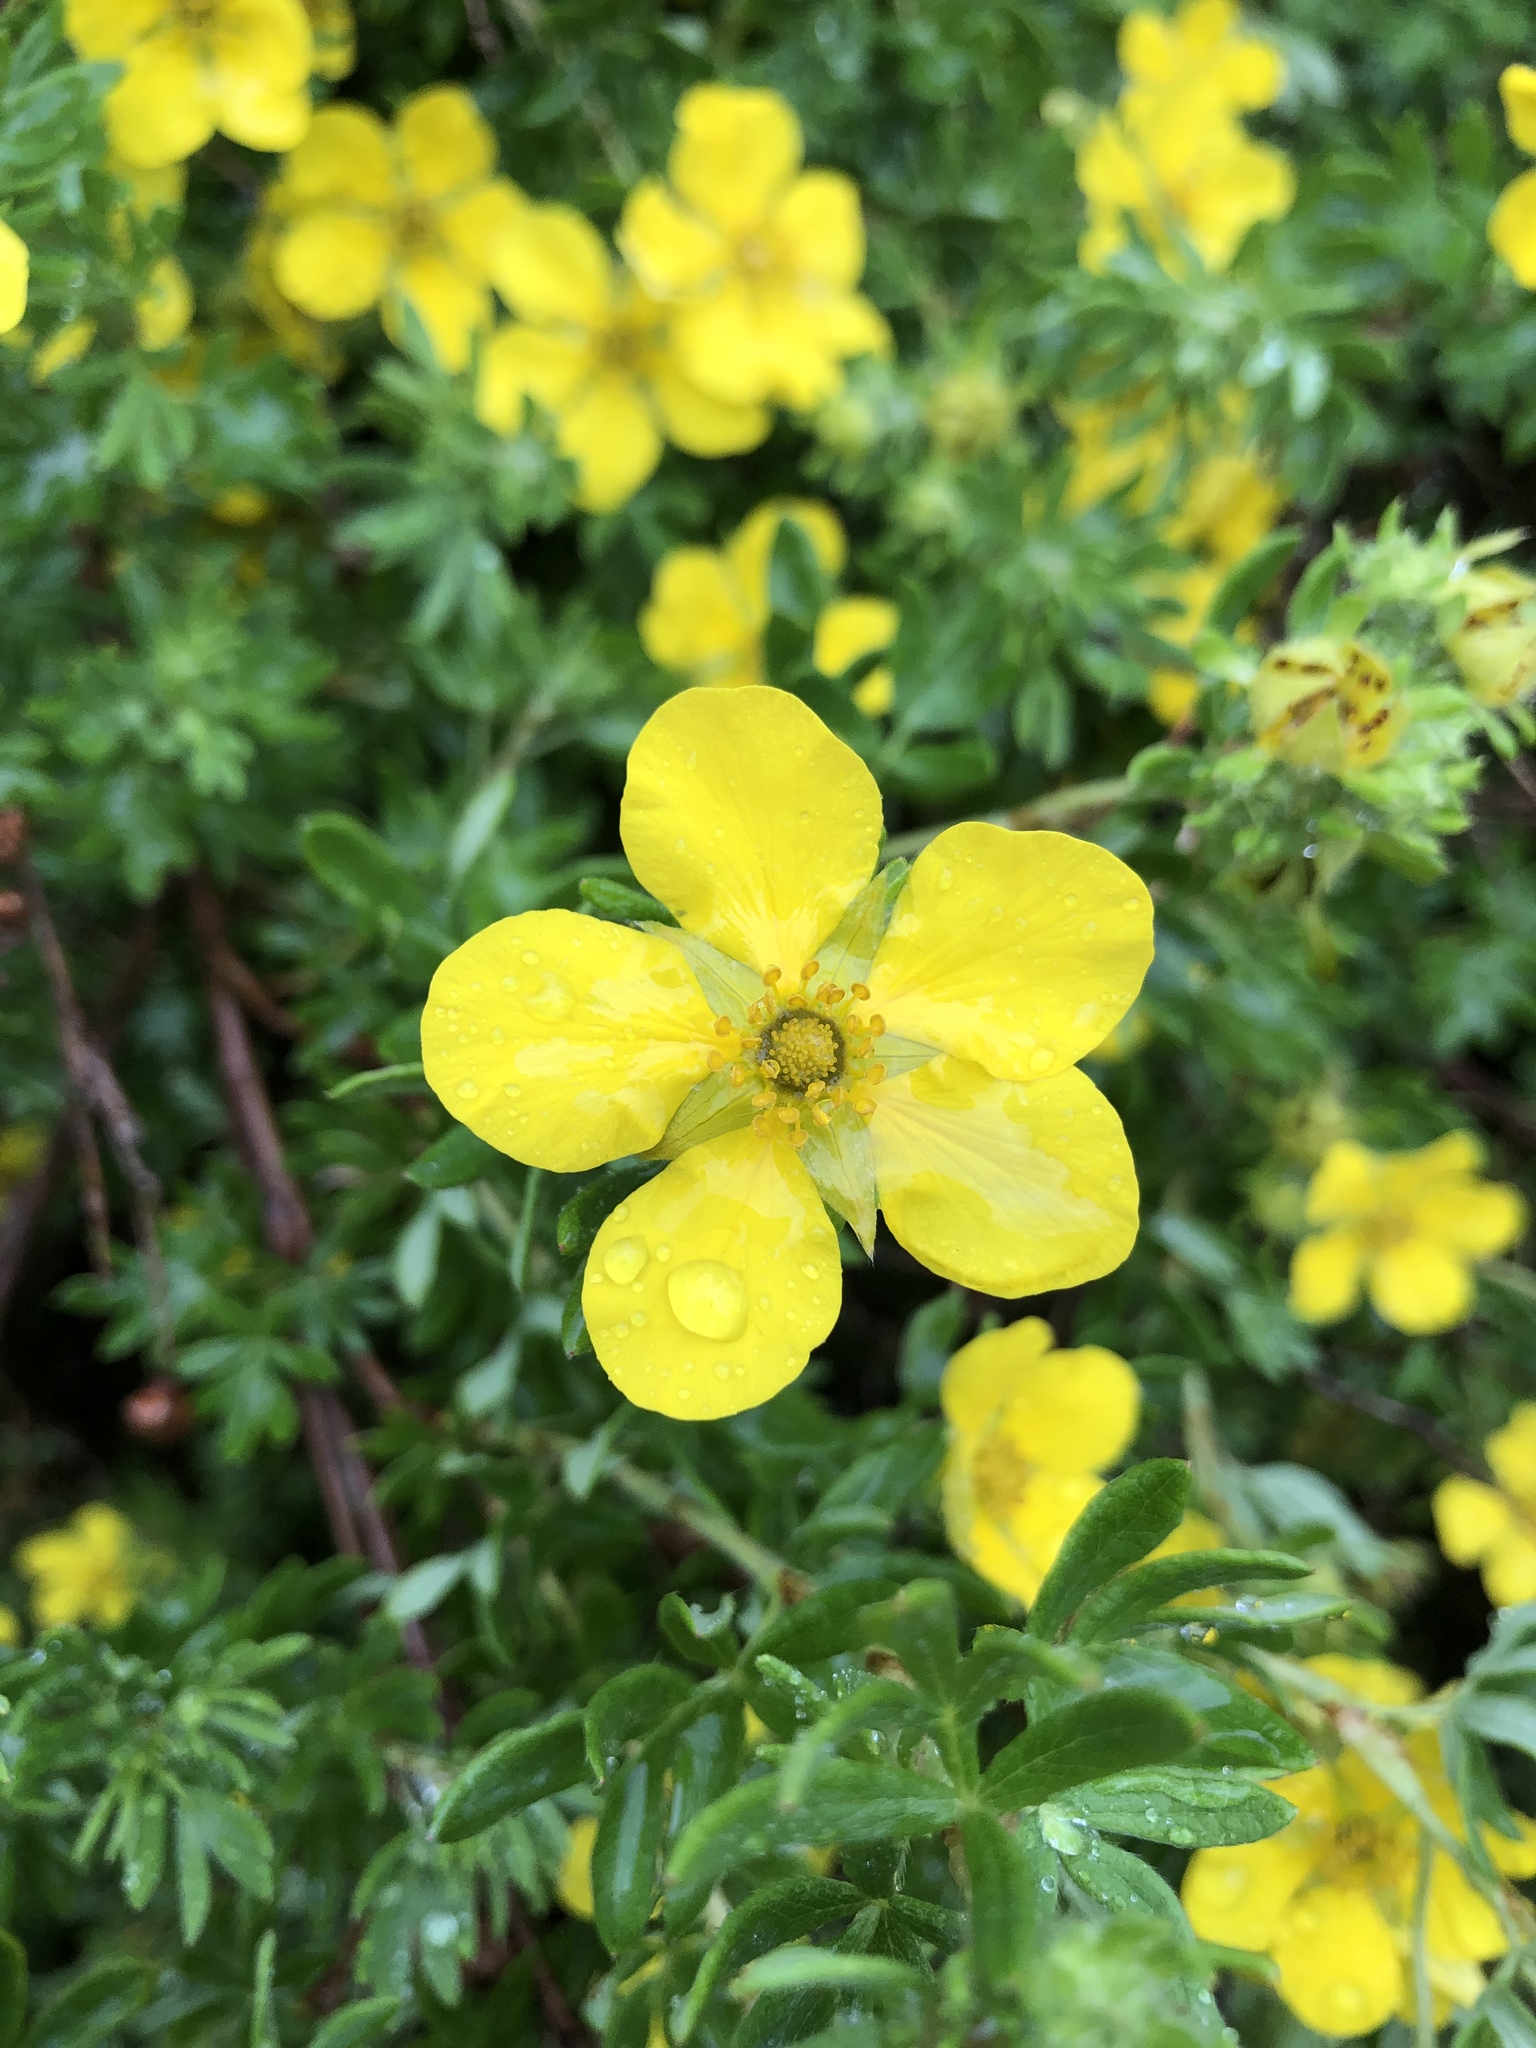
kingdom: Plantae
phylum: Tracheophyta
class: Magnoliopsida
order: Rosales
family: Rosaceae
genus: Dasiphora
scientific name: Dasiphora fruticosa
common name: Shrubby cinquefoil
